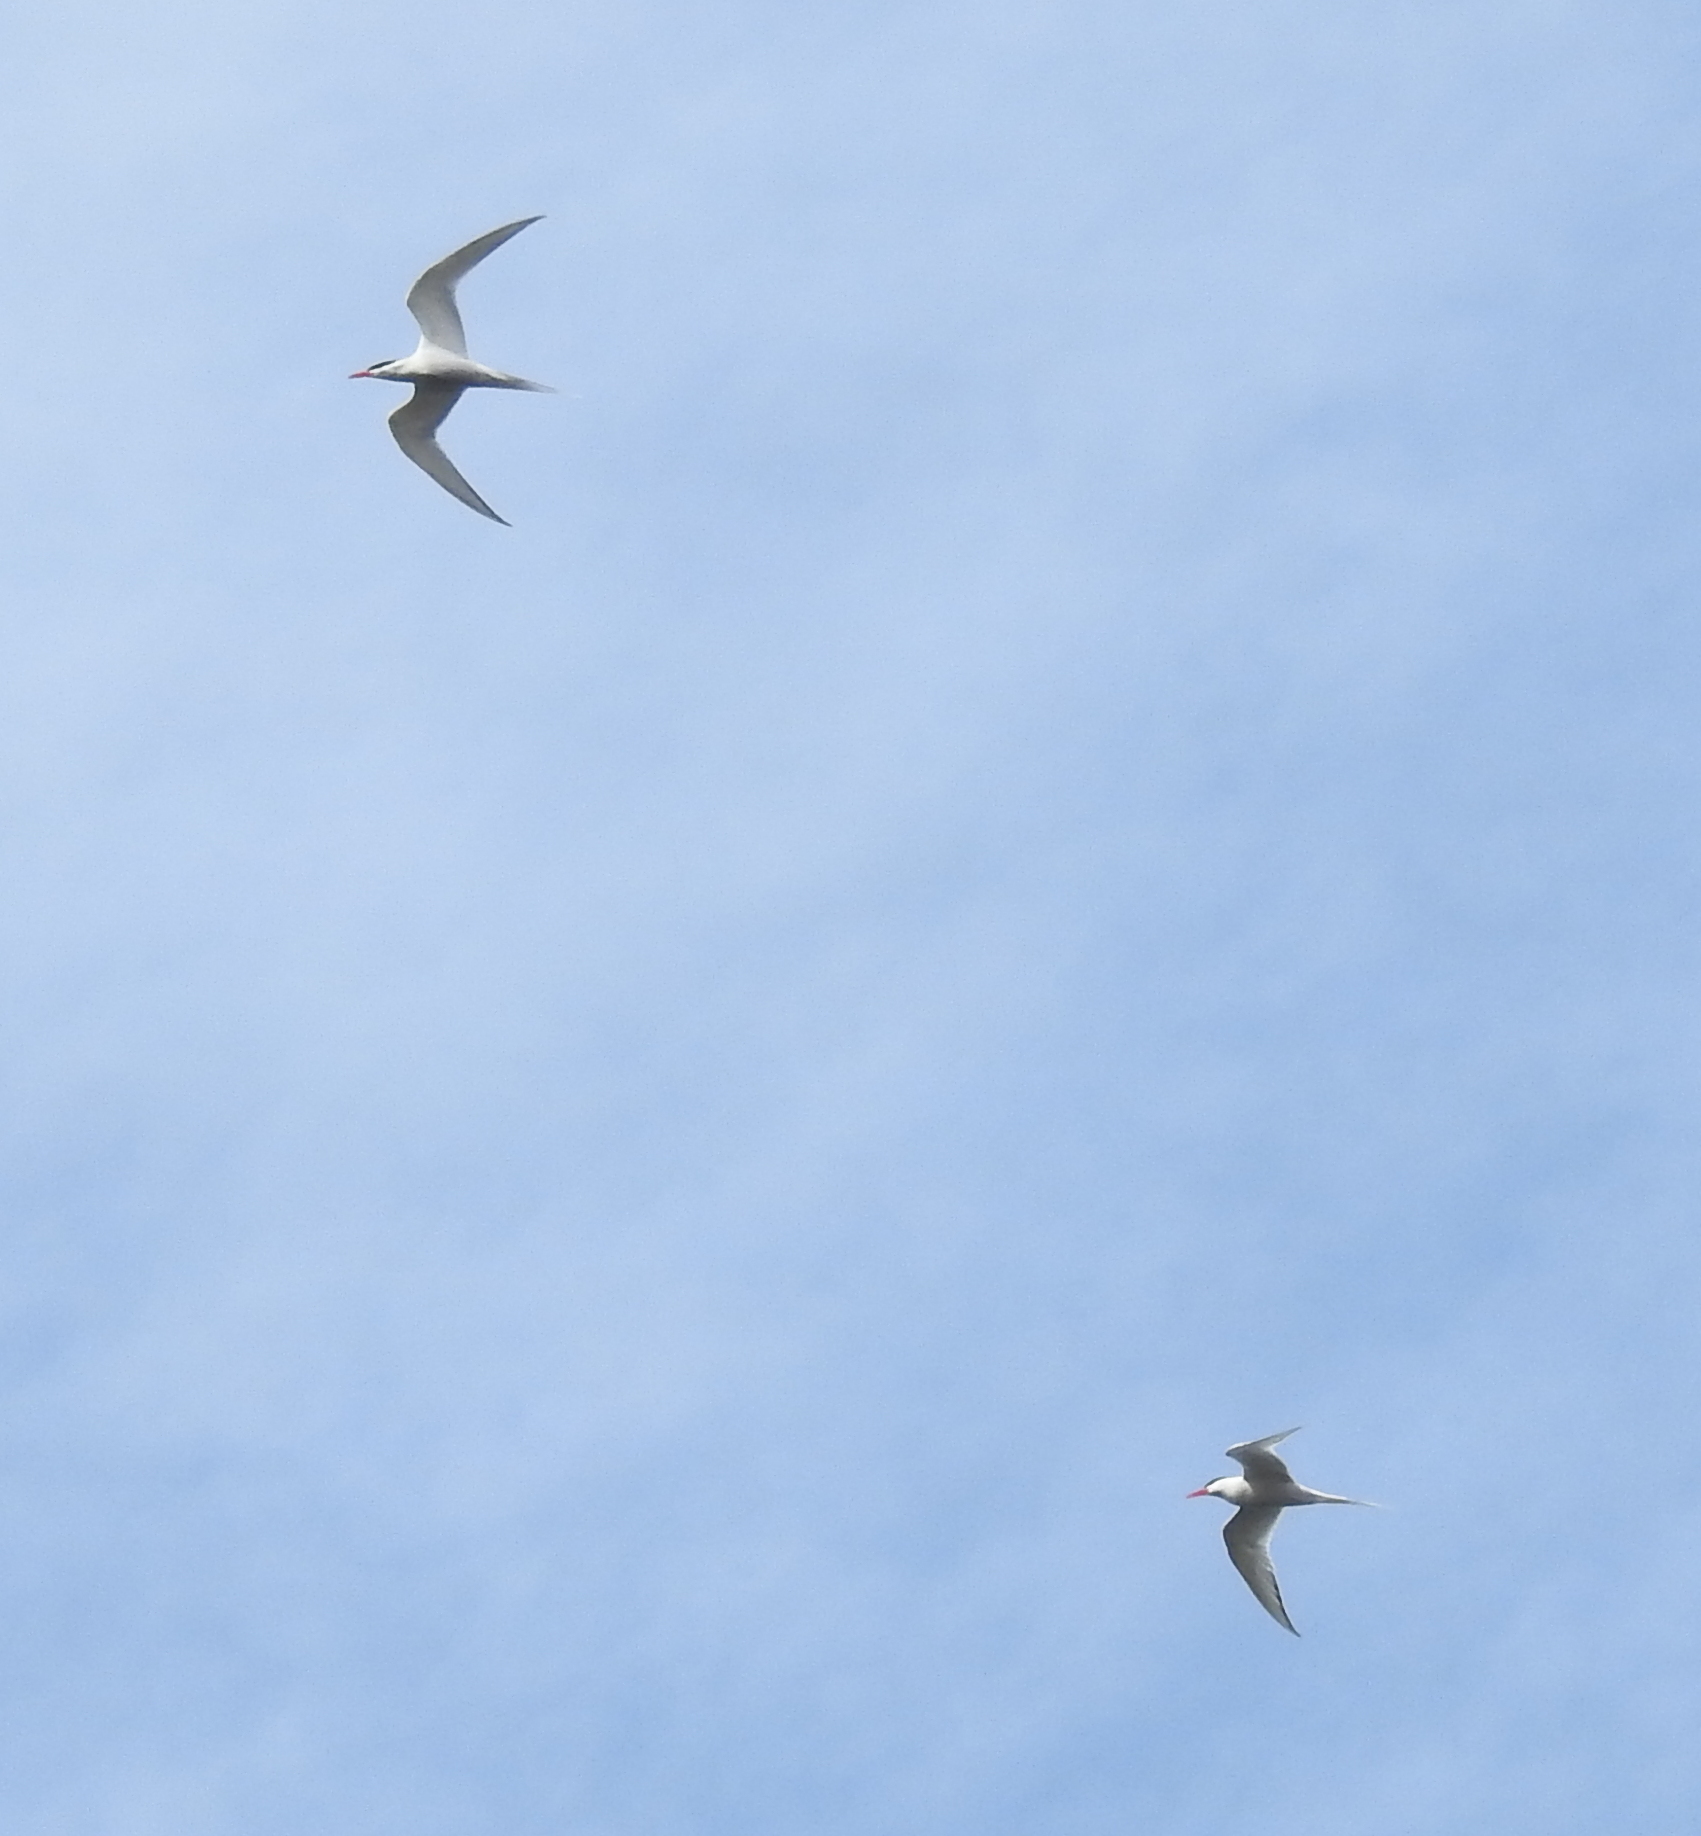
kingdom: Animalia
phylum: Chordata
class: Aves
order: Charadriiformes
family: Laridae
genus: Sterna
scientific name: Sterna hirundinacea
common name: South american tern
